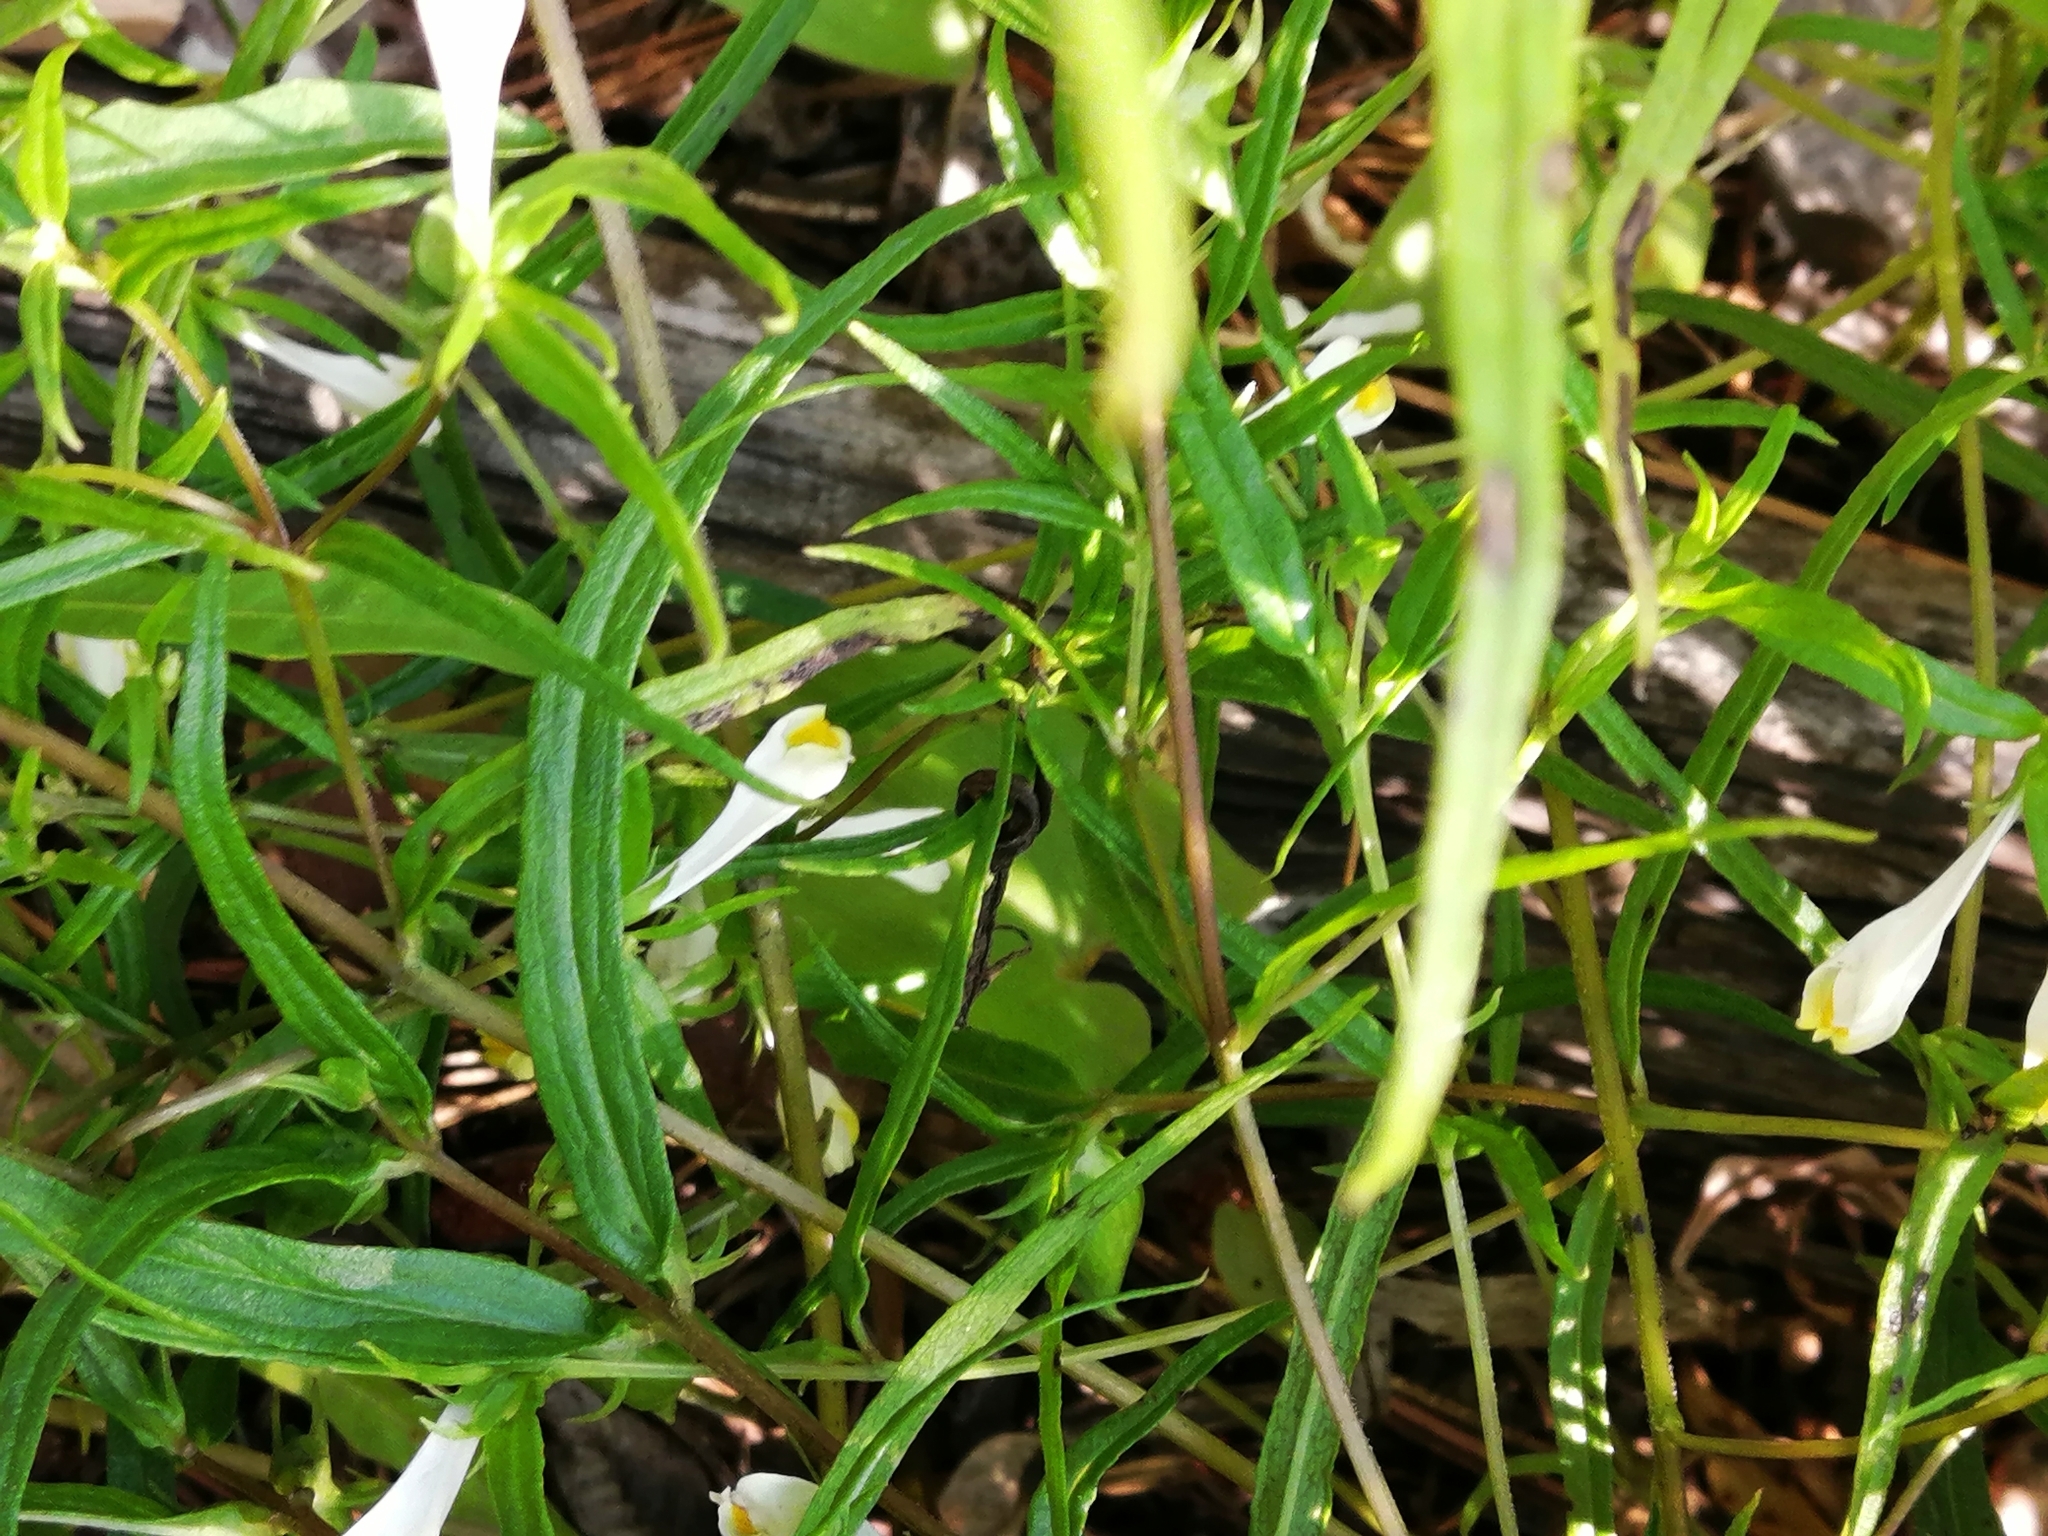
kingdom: Plantae
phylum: Tracheophyta
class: Magnoliopsida
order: Lamiales
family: Orobanchaceae
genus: Melampyrum
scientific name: Melampyrum pratense
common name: Common cow-wheat
